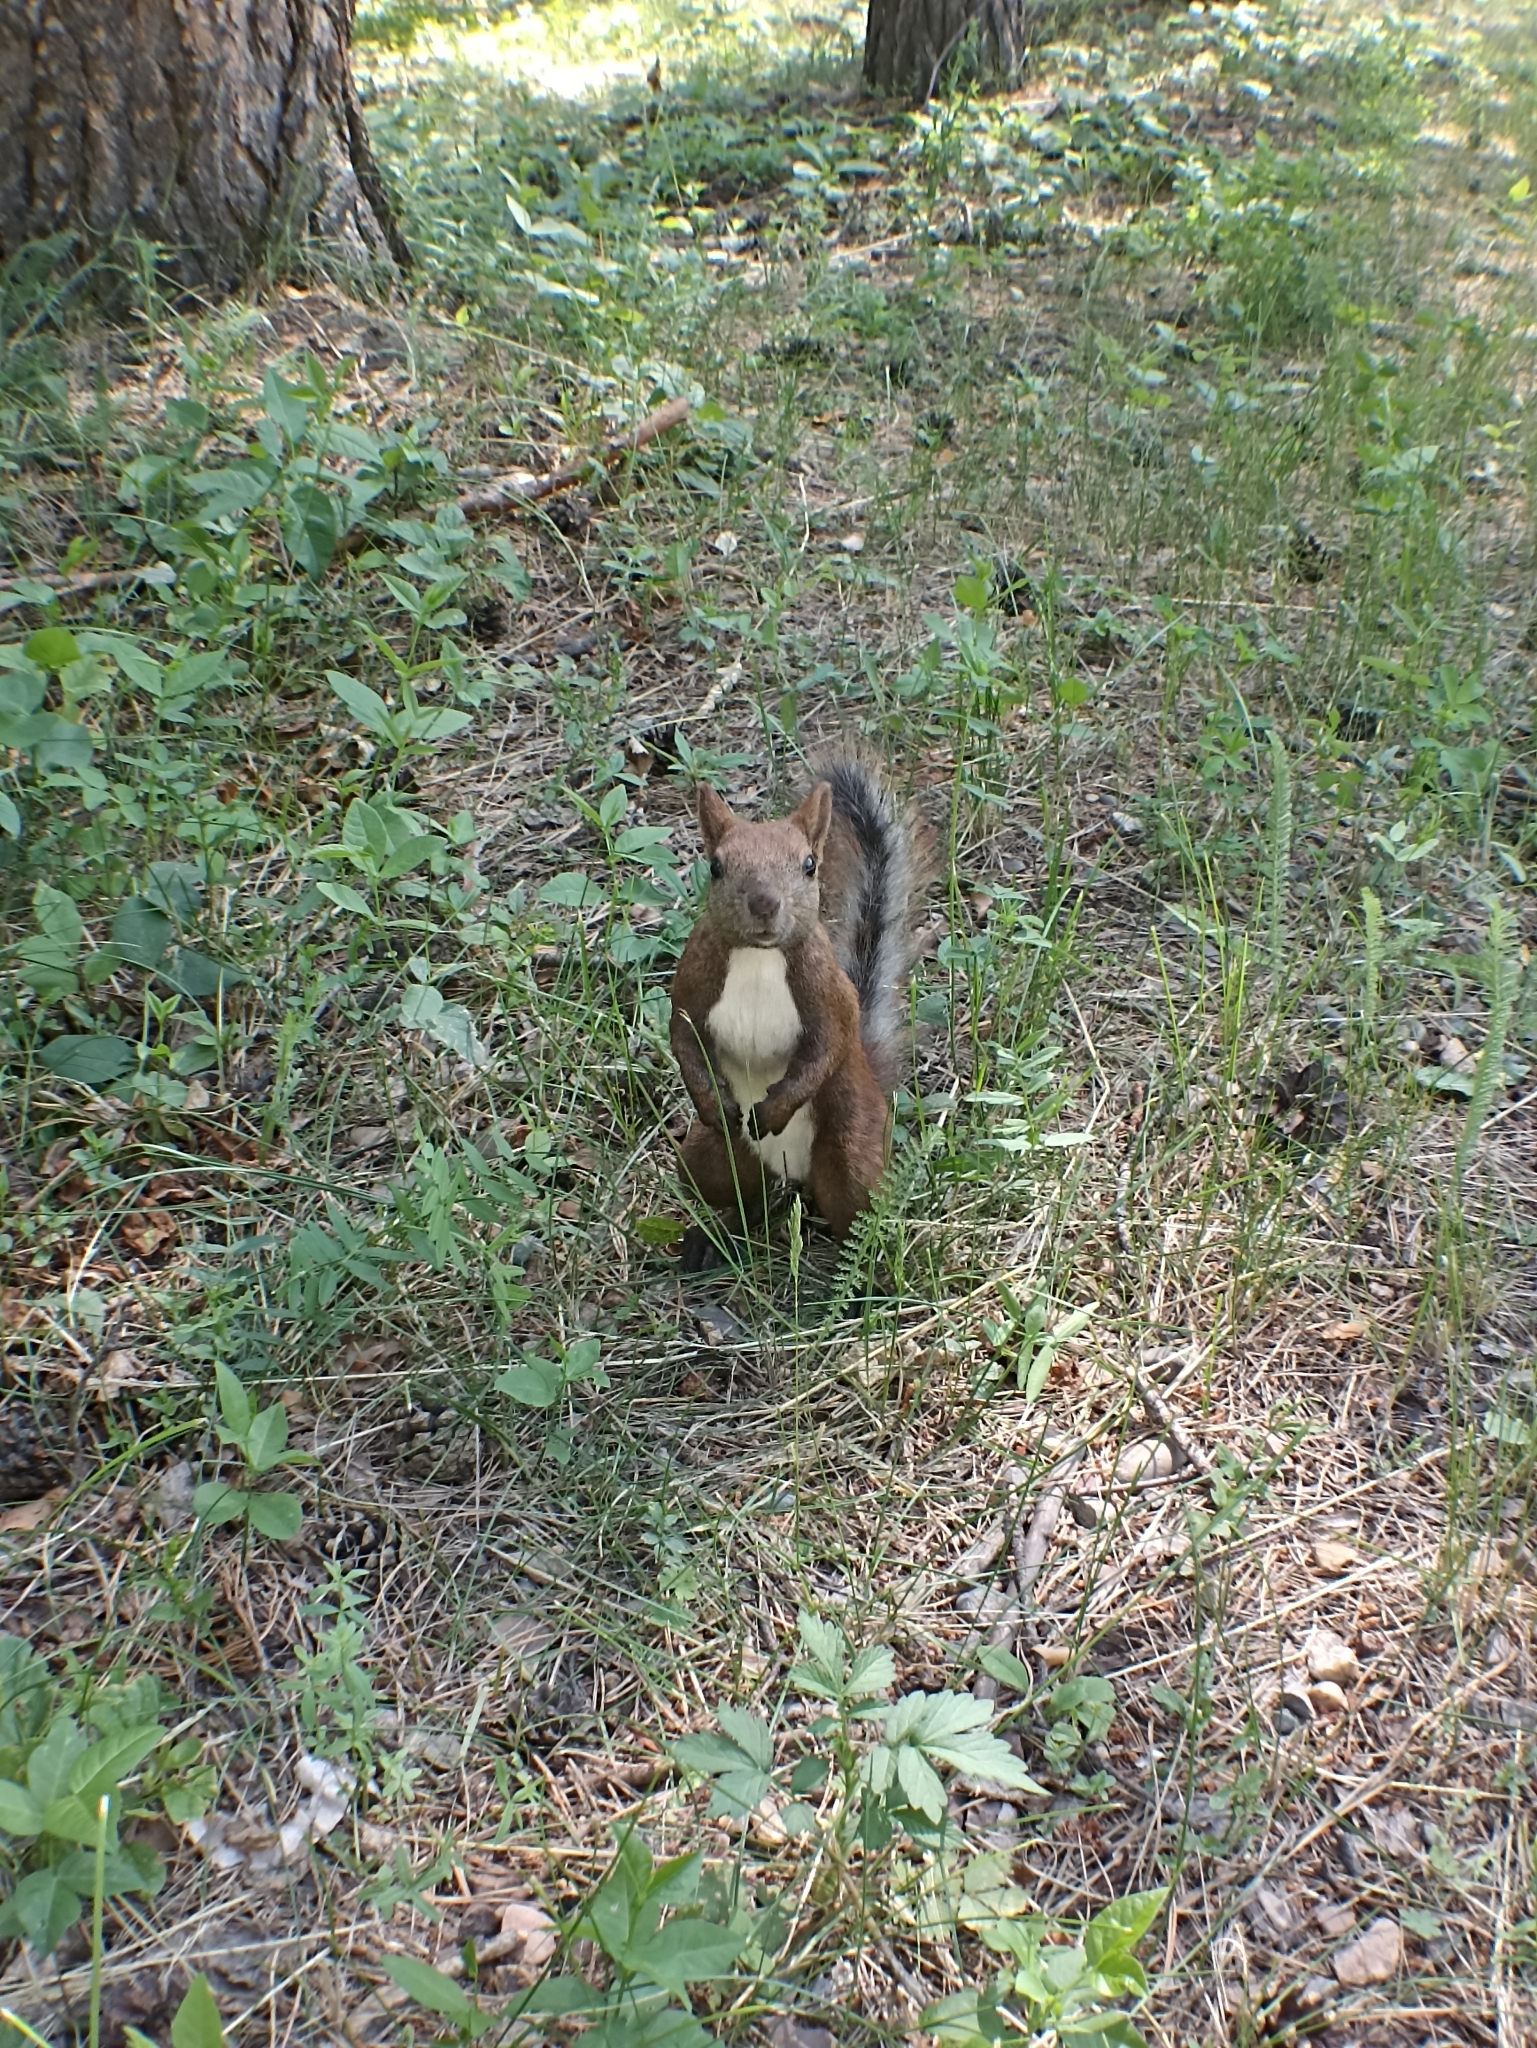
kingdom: Animalia
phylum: Chordata
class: Mammalia
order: Rodentia
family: Sciuridae
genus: Sciurus
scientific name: Sciurus vulgaris
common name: Eurasian red squirrel
